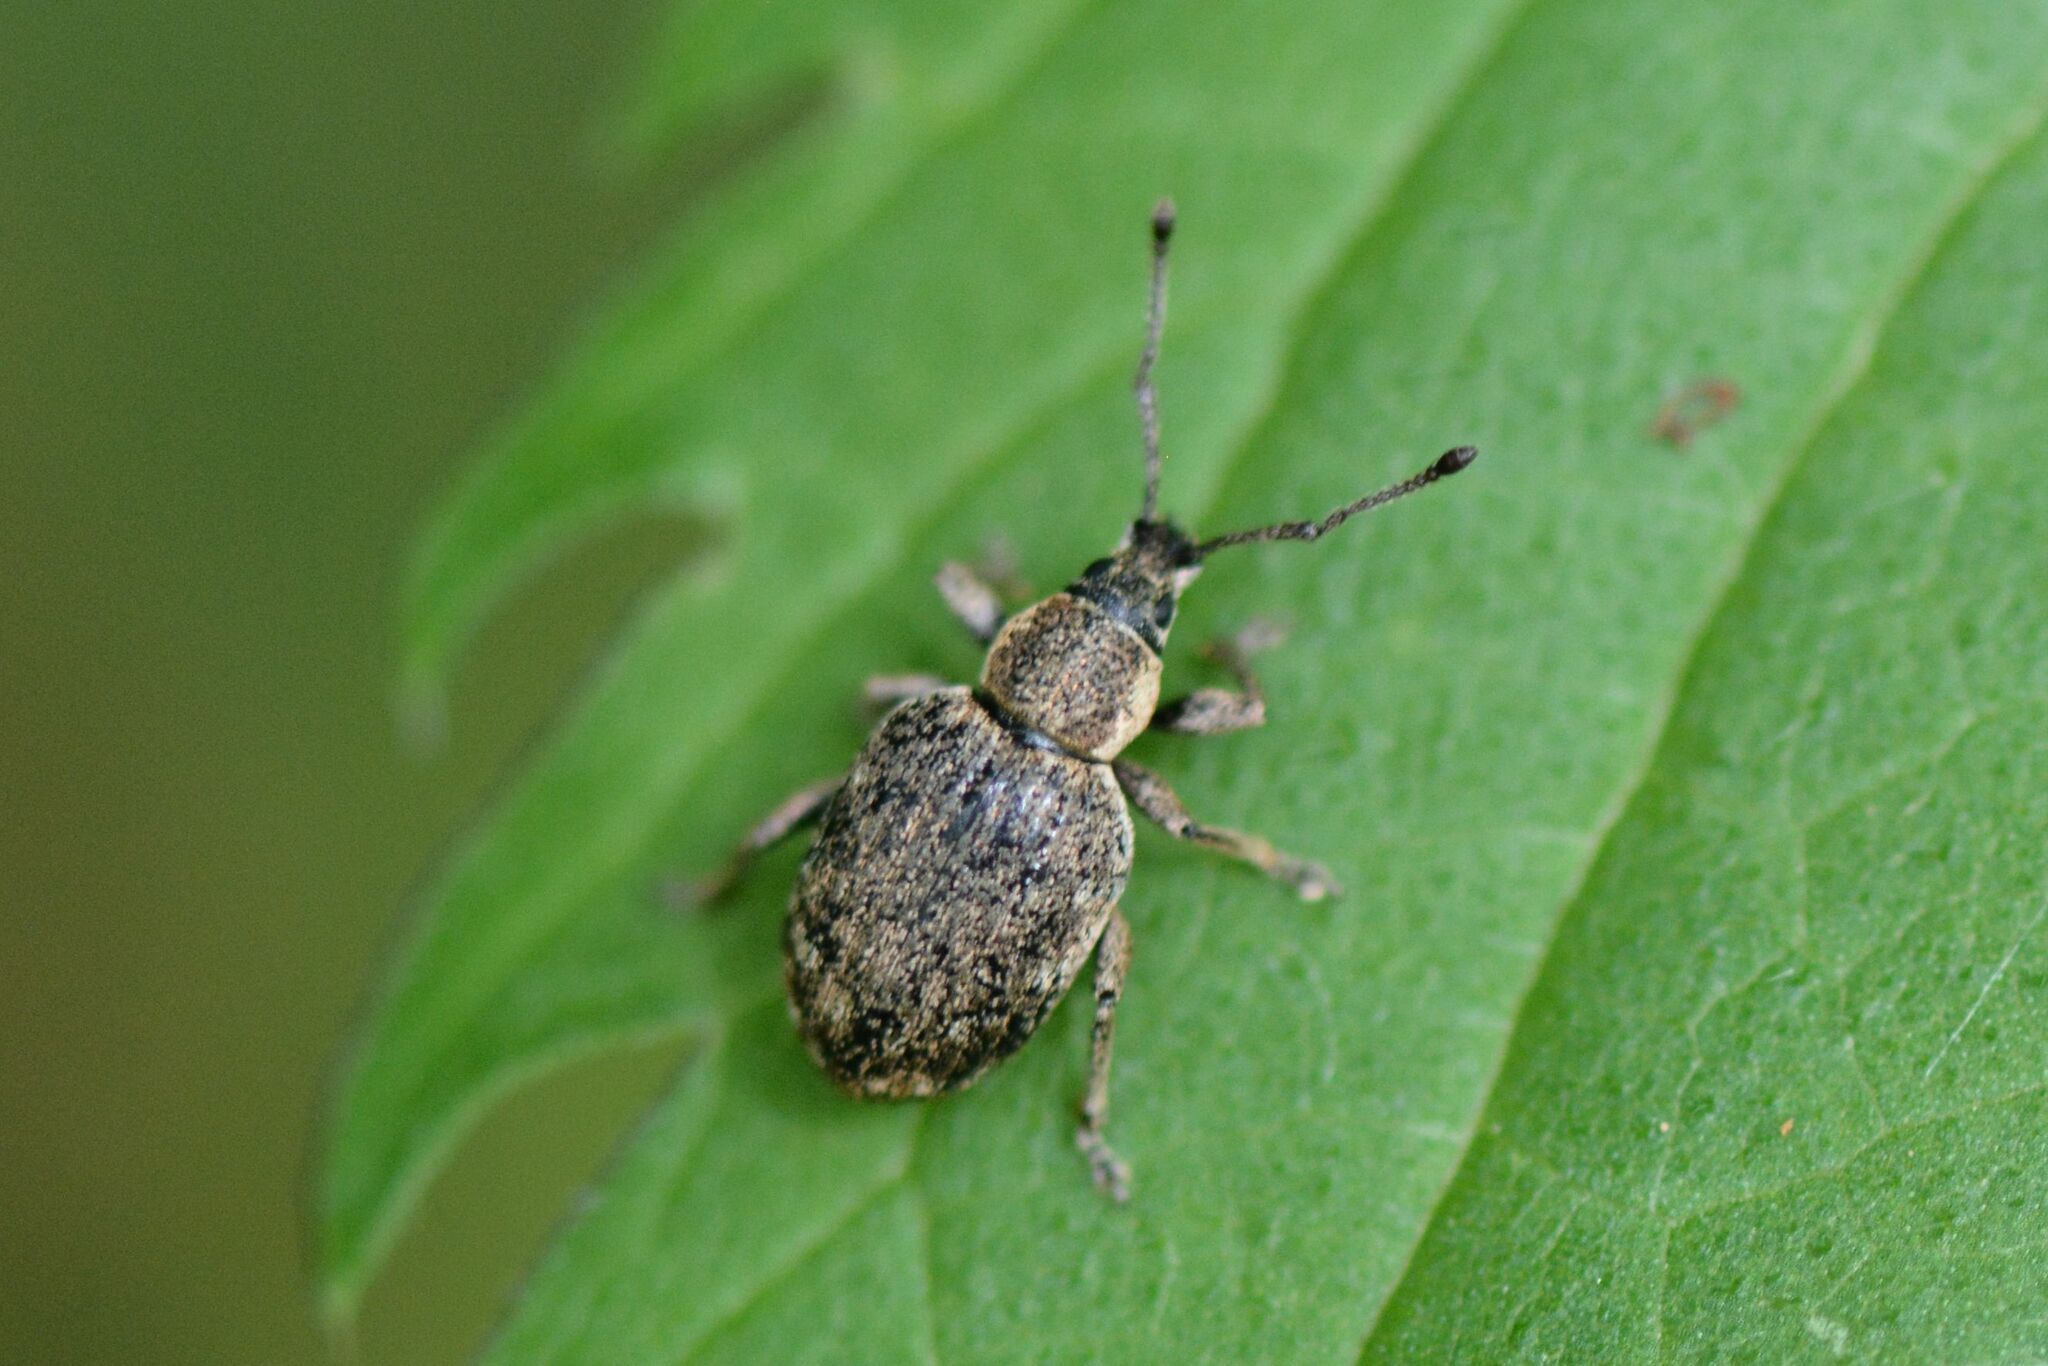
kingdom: Animalia
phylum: Arthropoda
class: Insecta
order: Coleoptera
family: Curculionidae
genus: Peritelus
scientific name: Peritelus sphaeroides
